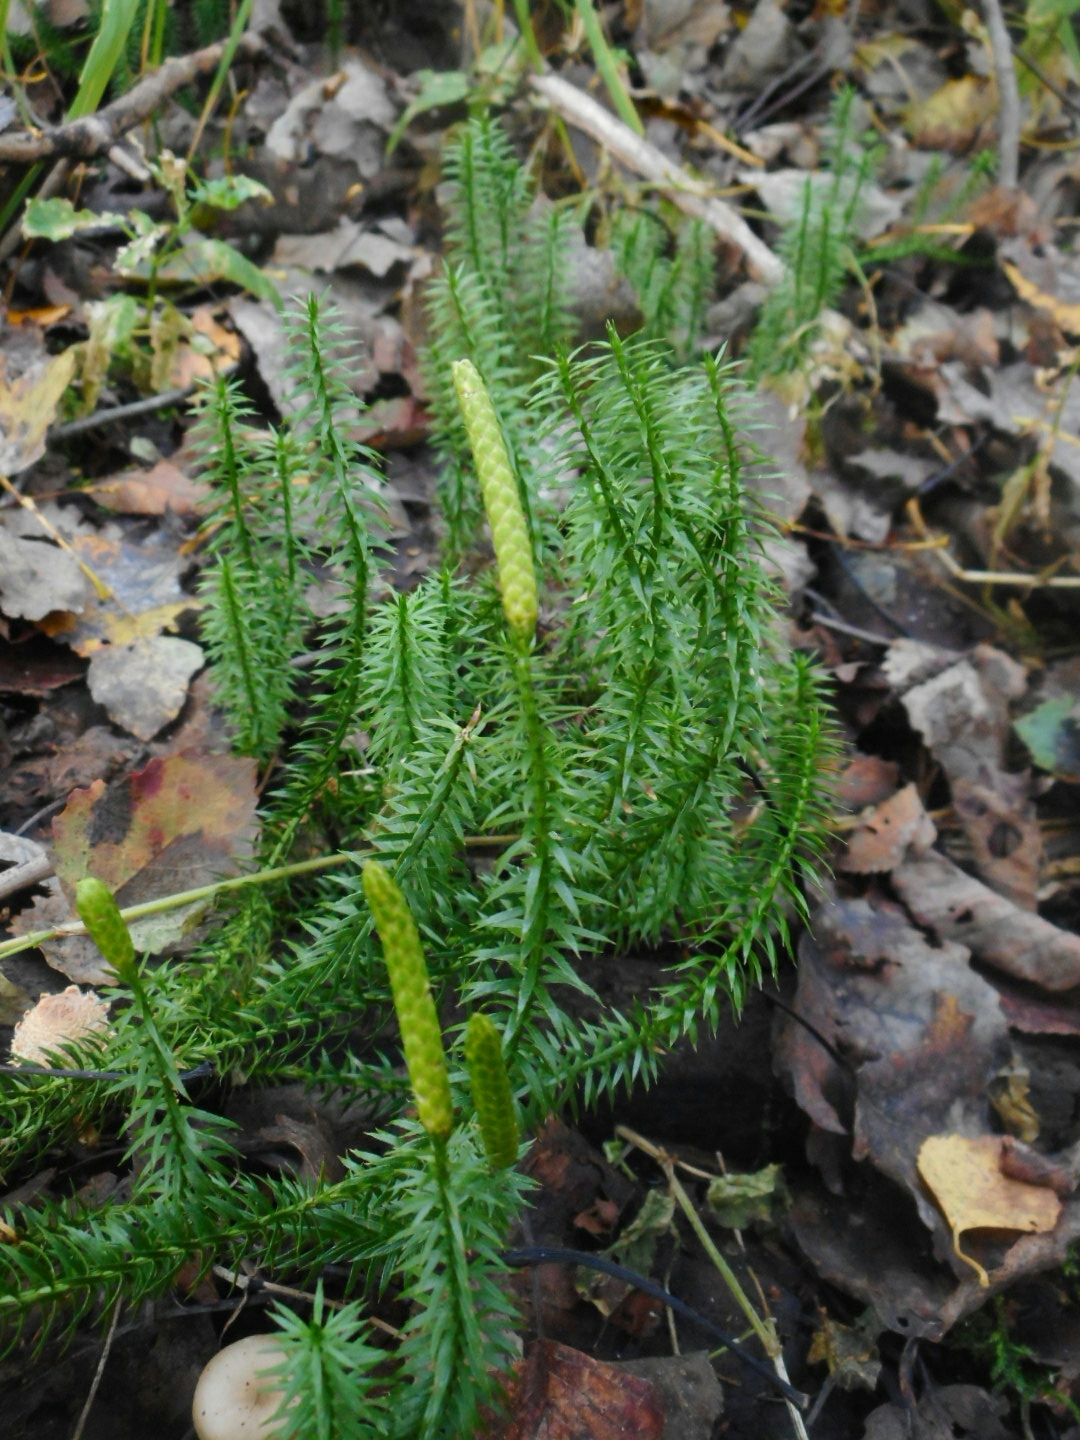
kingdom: Plantae
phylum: Tracheophyta
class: Lycopodiopsida
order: Lycopodiales
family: Lycopodiaceae
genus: Spinulum
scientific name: Spinulum annotinum
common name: Interrupted club-moss
